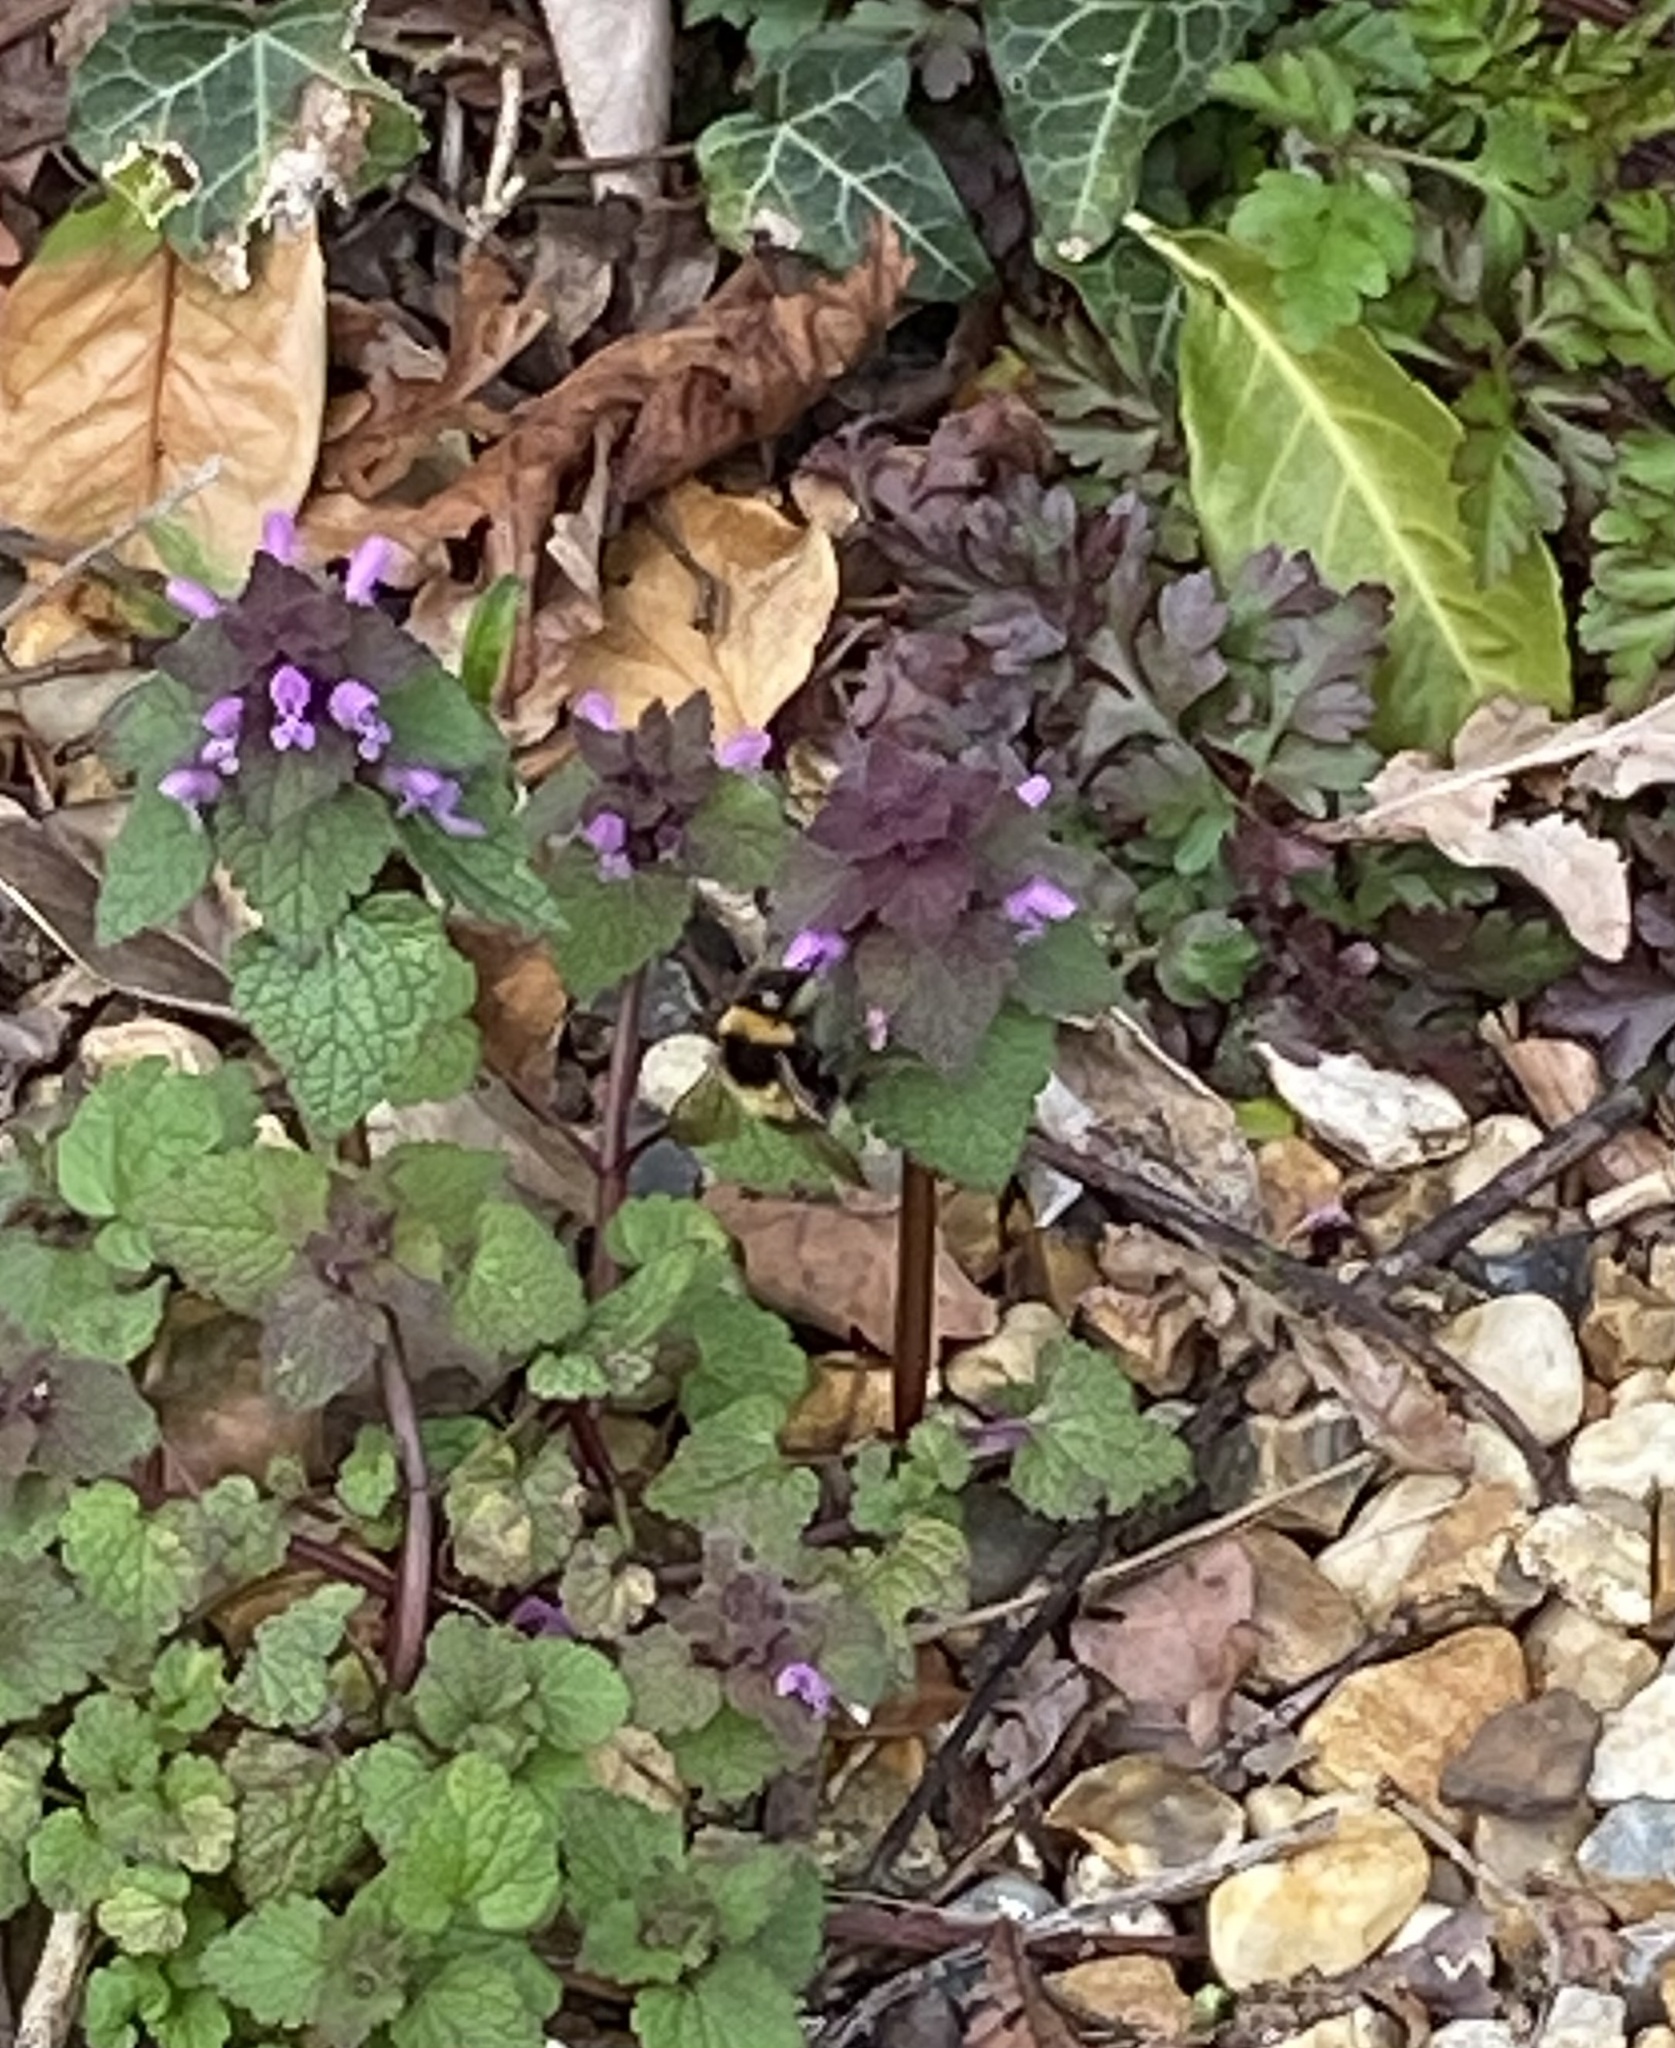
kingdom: Animalia
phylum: Arthropoda
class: Insecta
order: Hymenoptera
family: Apidae
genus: Bombus
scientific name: Bombus hortorum
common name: Garden bumblebee
